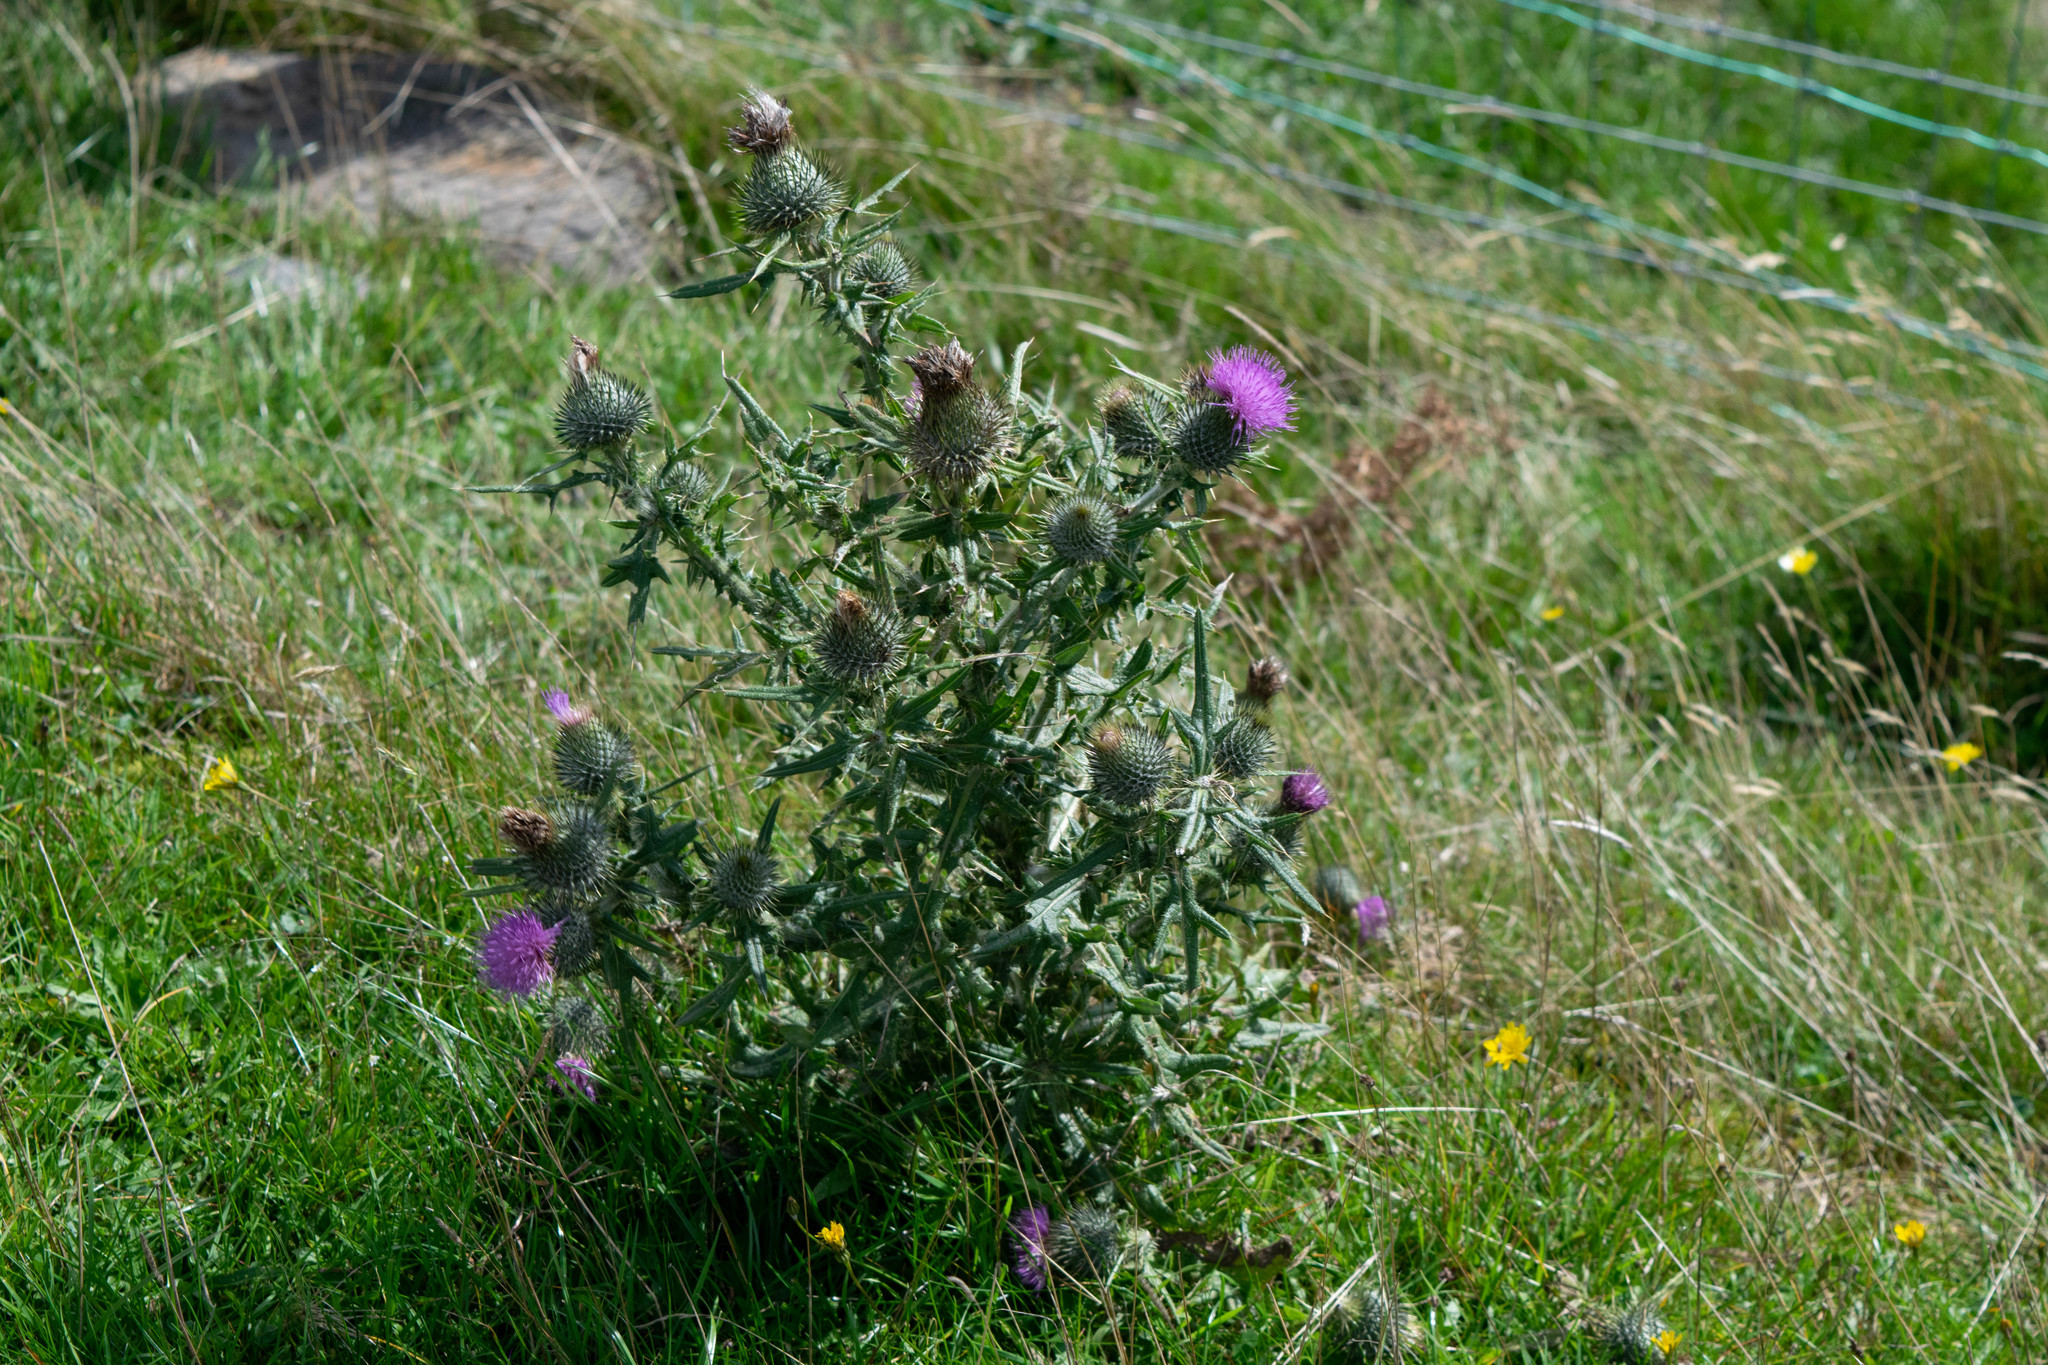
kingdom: Plantae
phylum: Tracheophyta
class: Magnoliopsida
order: Asterales
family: Asteraceae
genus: Cirsium
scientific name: Cirsium vulgare
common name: Bull thistle
